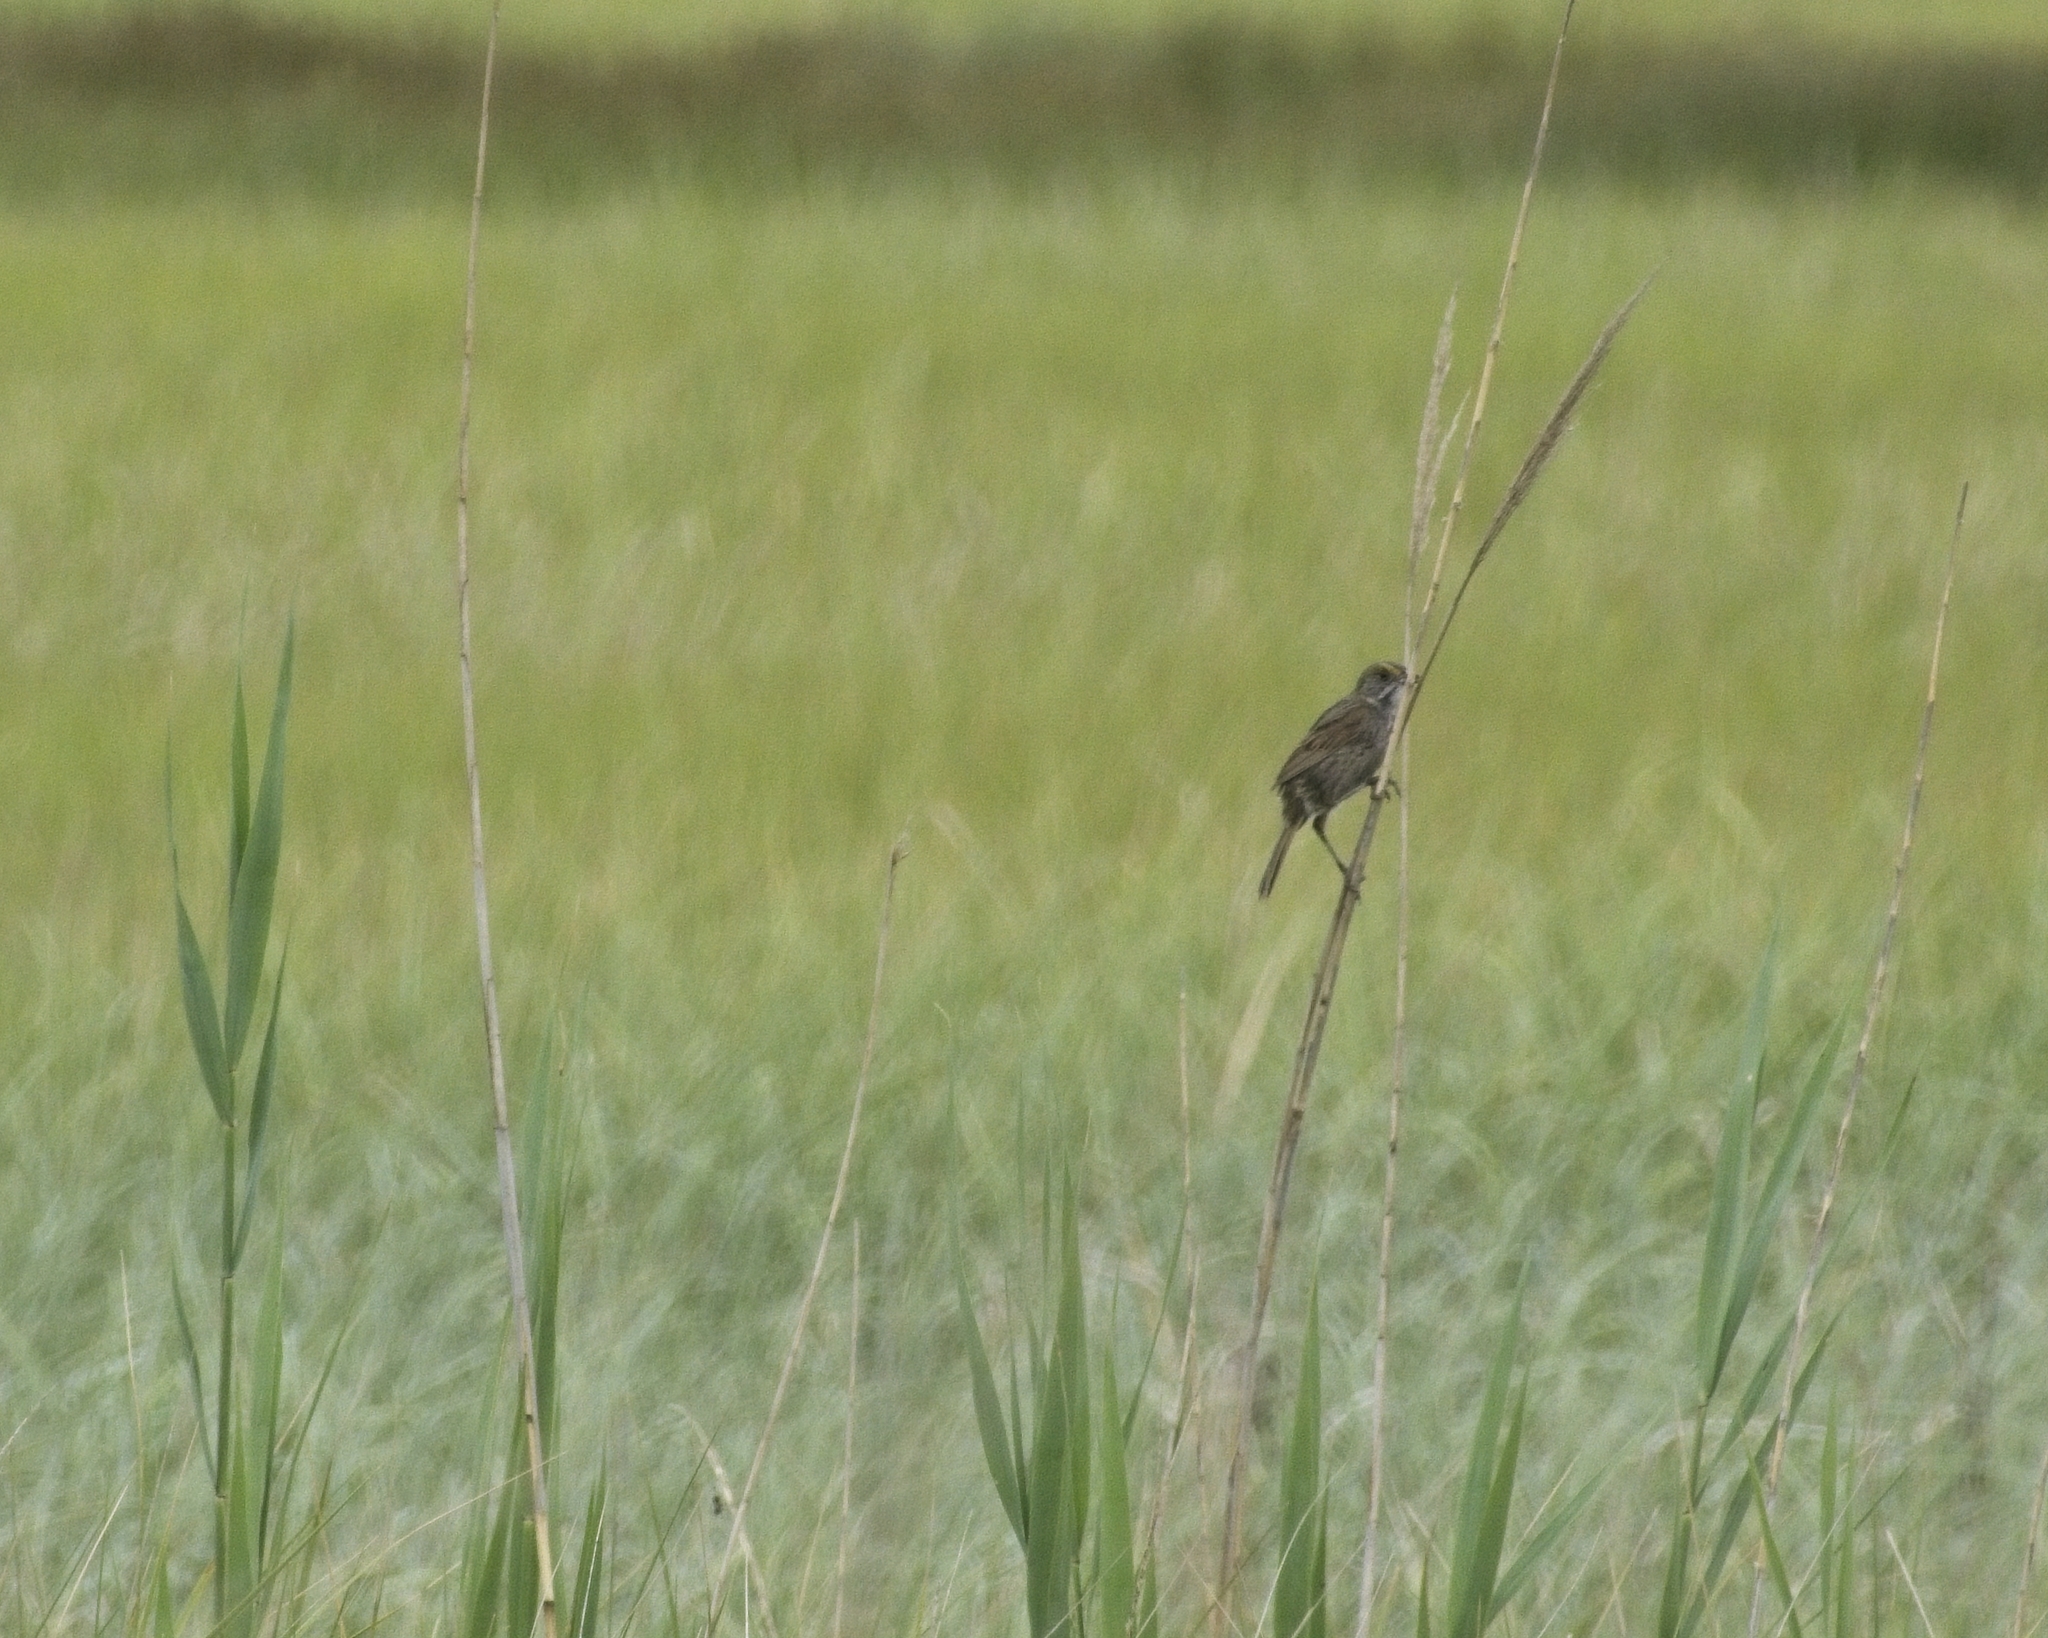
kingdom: Animalia
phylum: Chordata
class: Aves
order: Passeriformes
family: Passerellidae
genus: Ammospiza
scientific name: Ammospiza maritima
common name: Seaside sparrow
